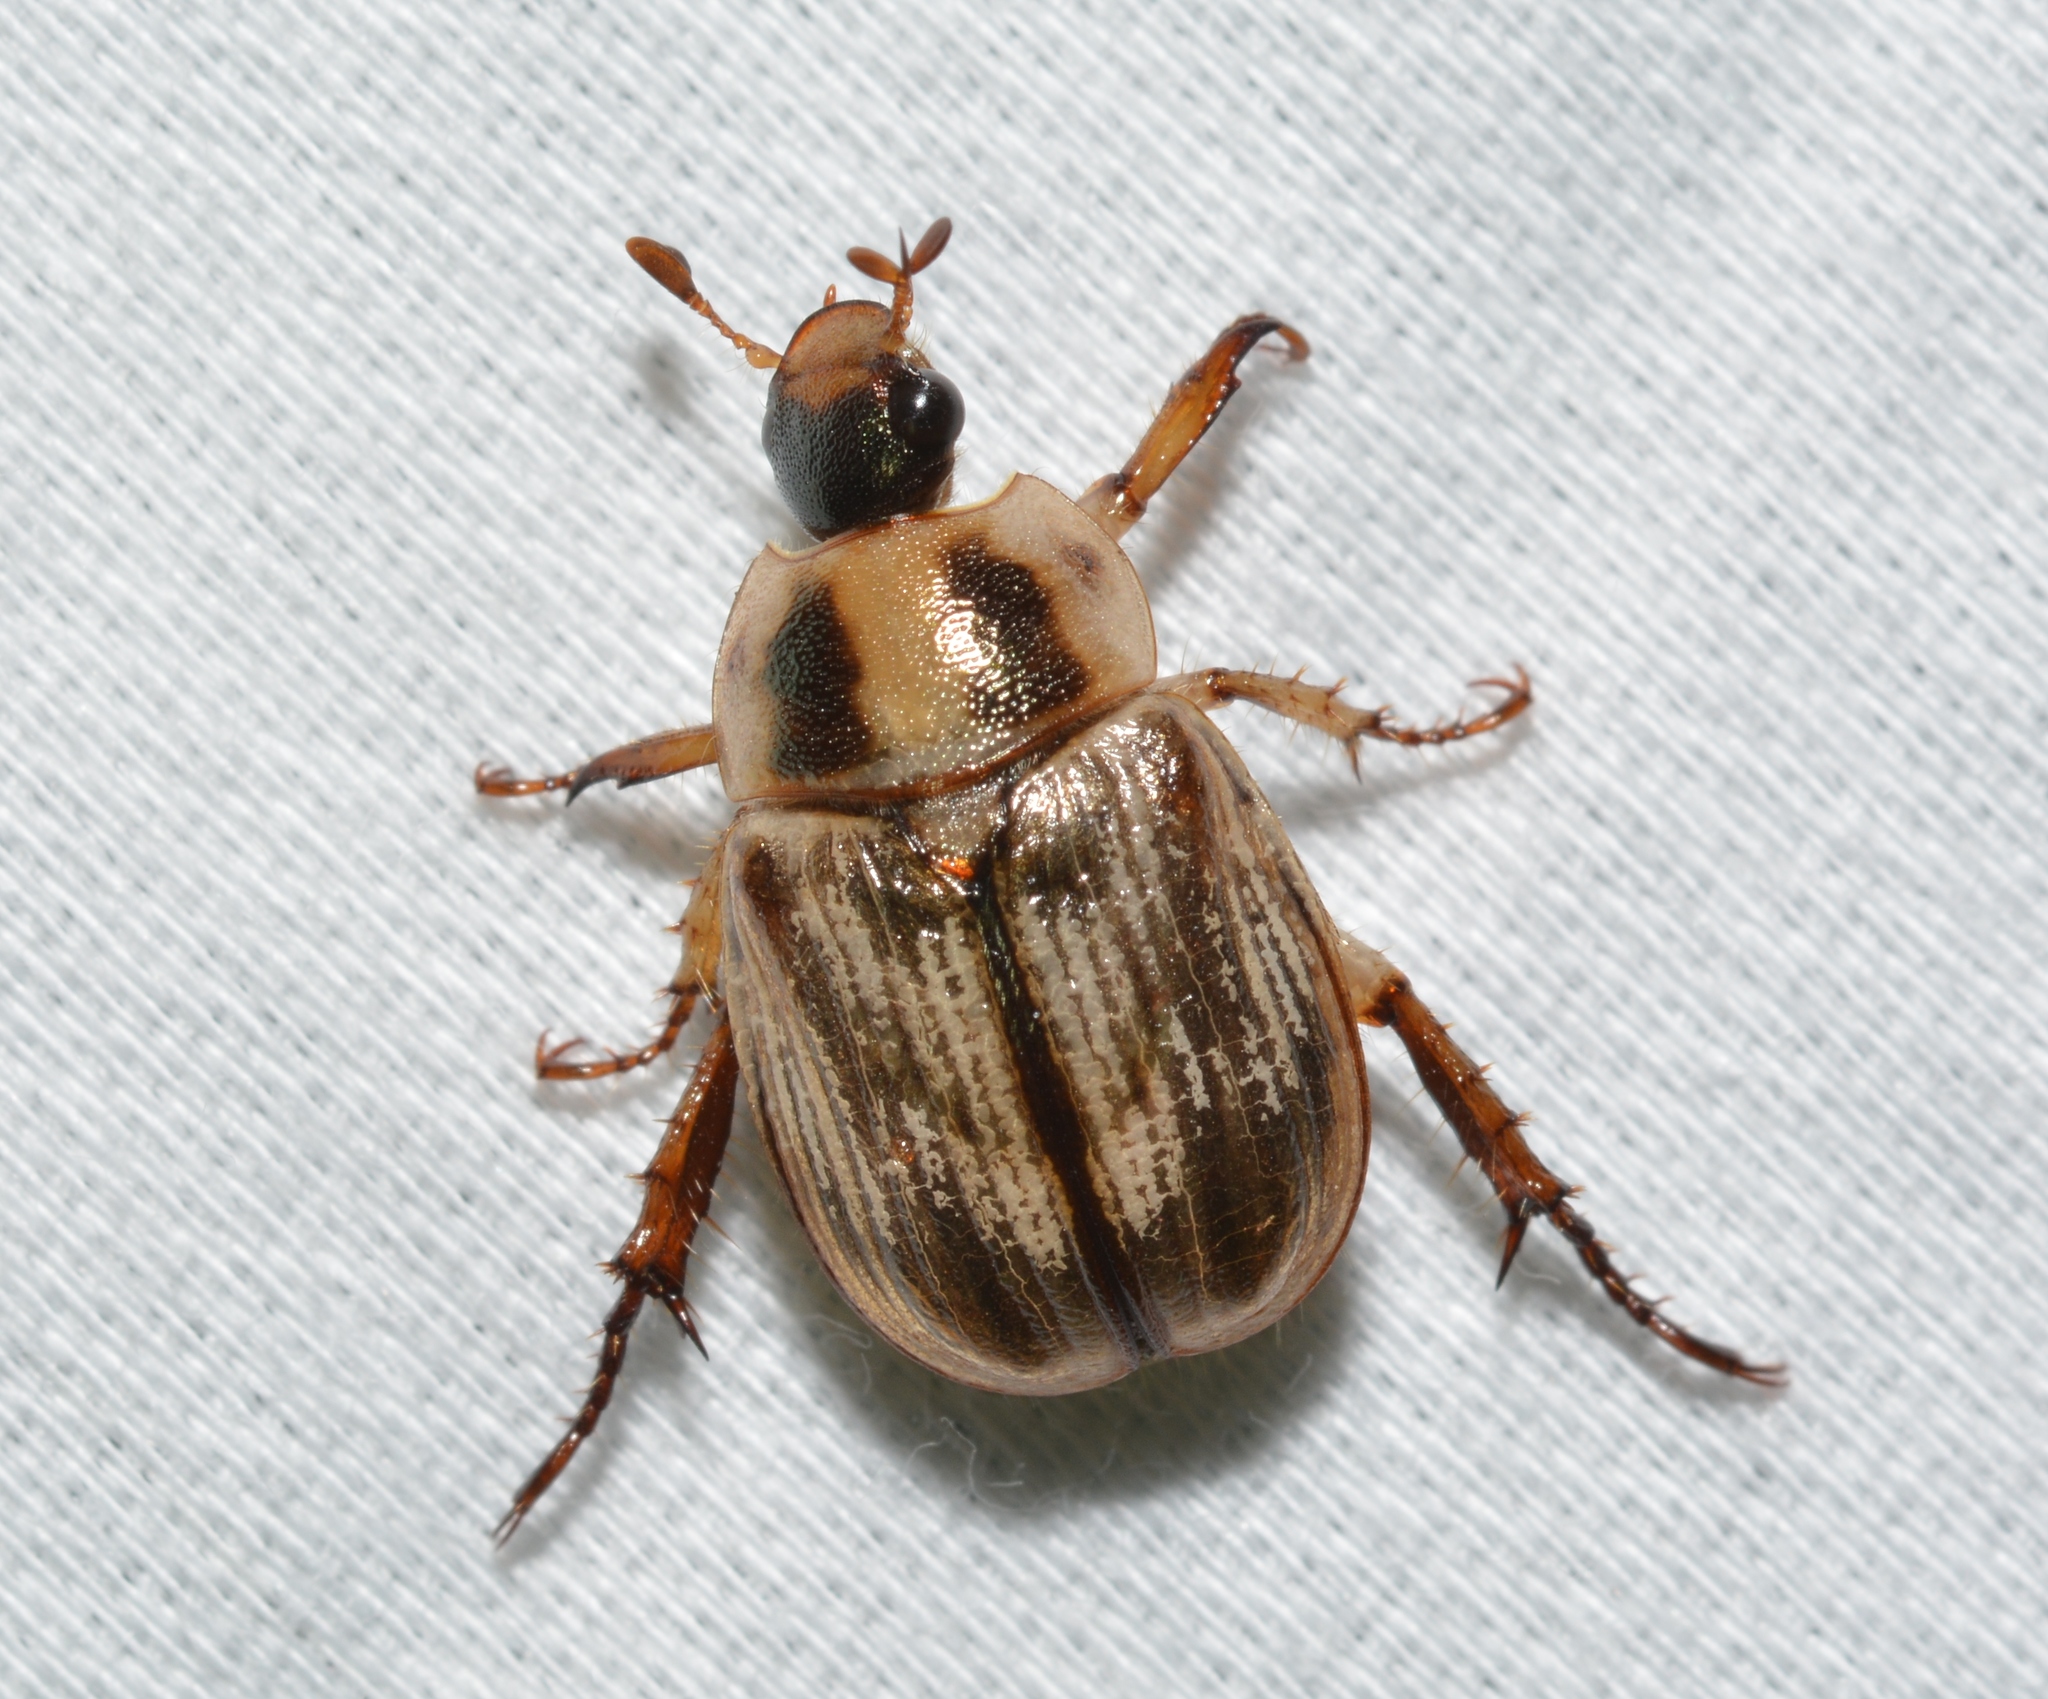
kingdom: Animalia
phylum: Arthropoda
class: Insecta
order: Coleoptera
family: Scarabaeidae
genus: Exomala
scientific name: Exomala orientalis
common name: Oriental beetle
